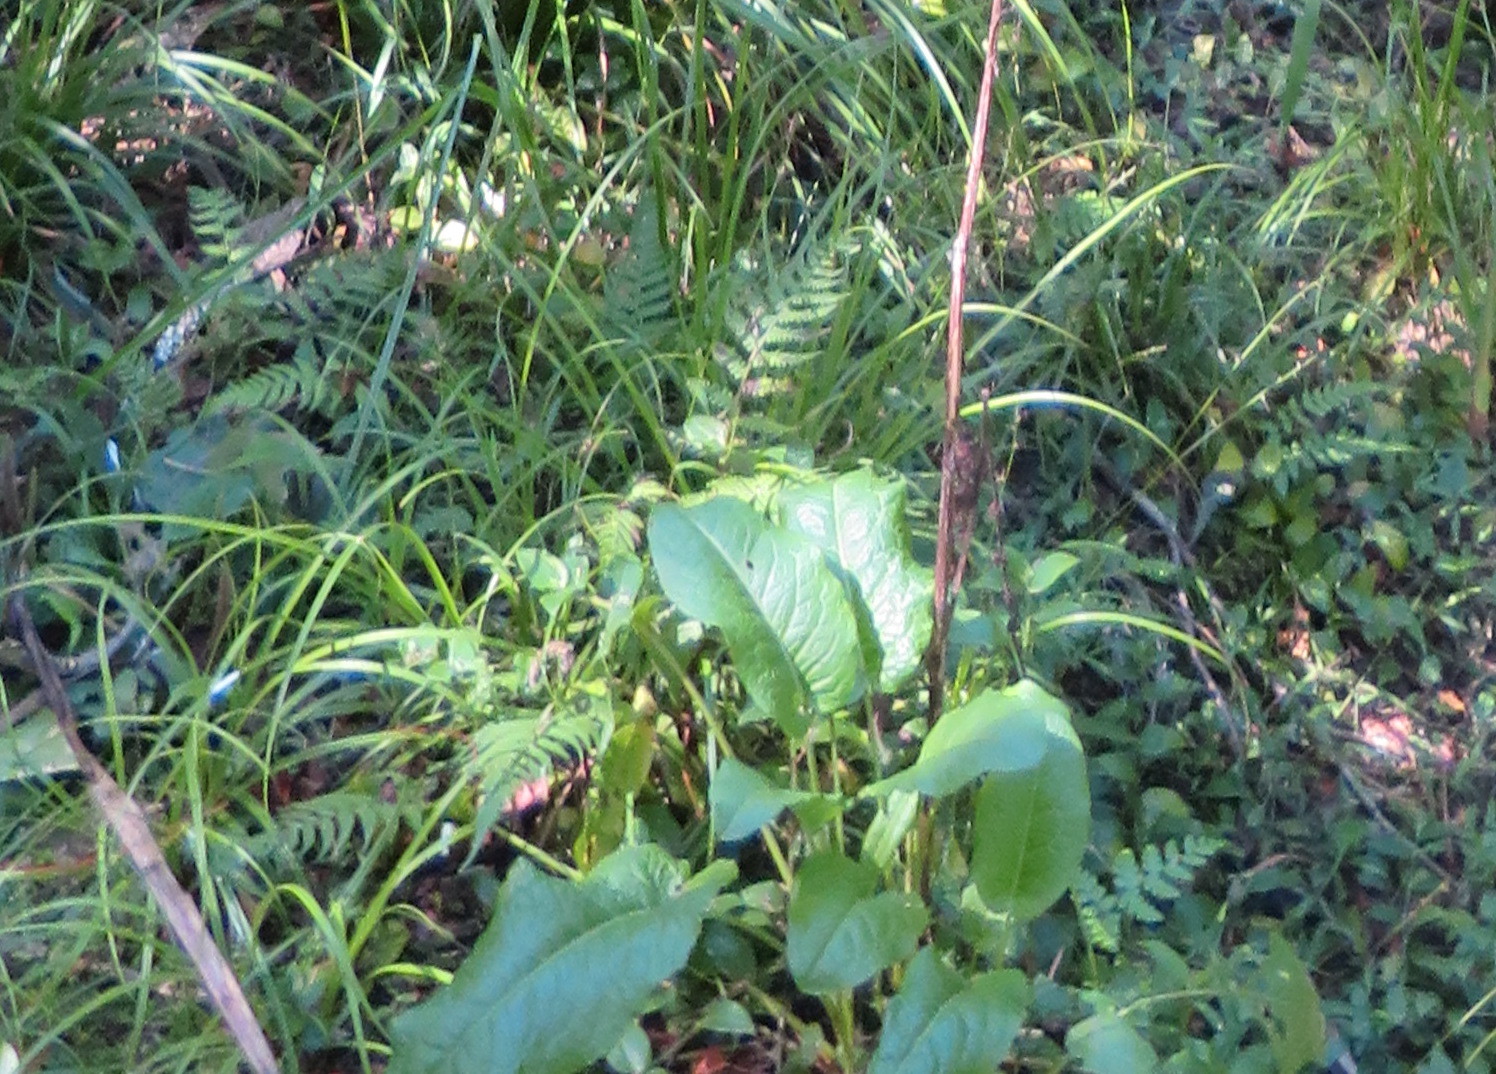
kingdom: Plantae
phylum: Tracheophyta
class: Magnoliopsida
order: Caryophyllales
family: Polygonaceae
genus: Rumex
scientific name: Rumex obtusifolius
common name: Bitter dock
